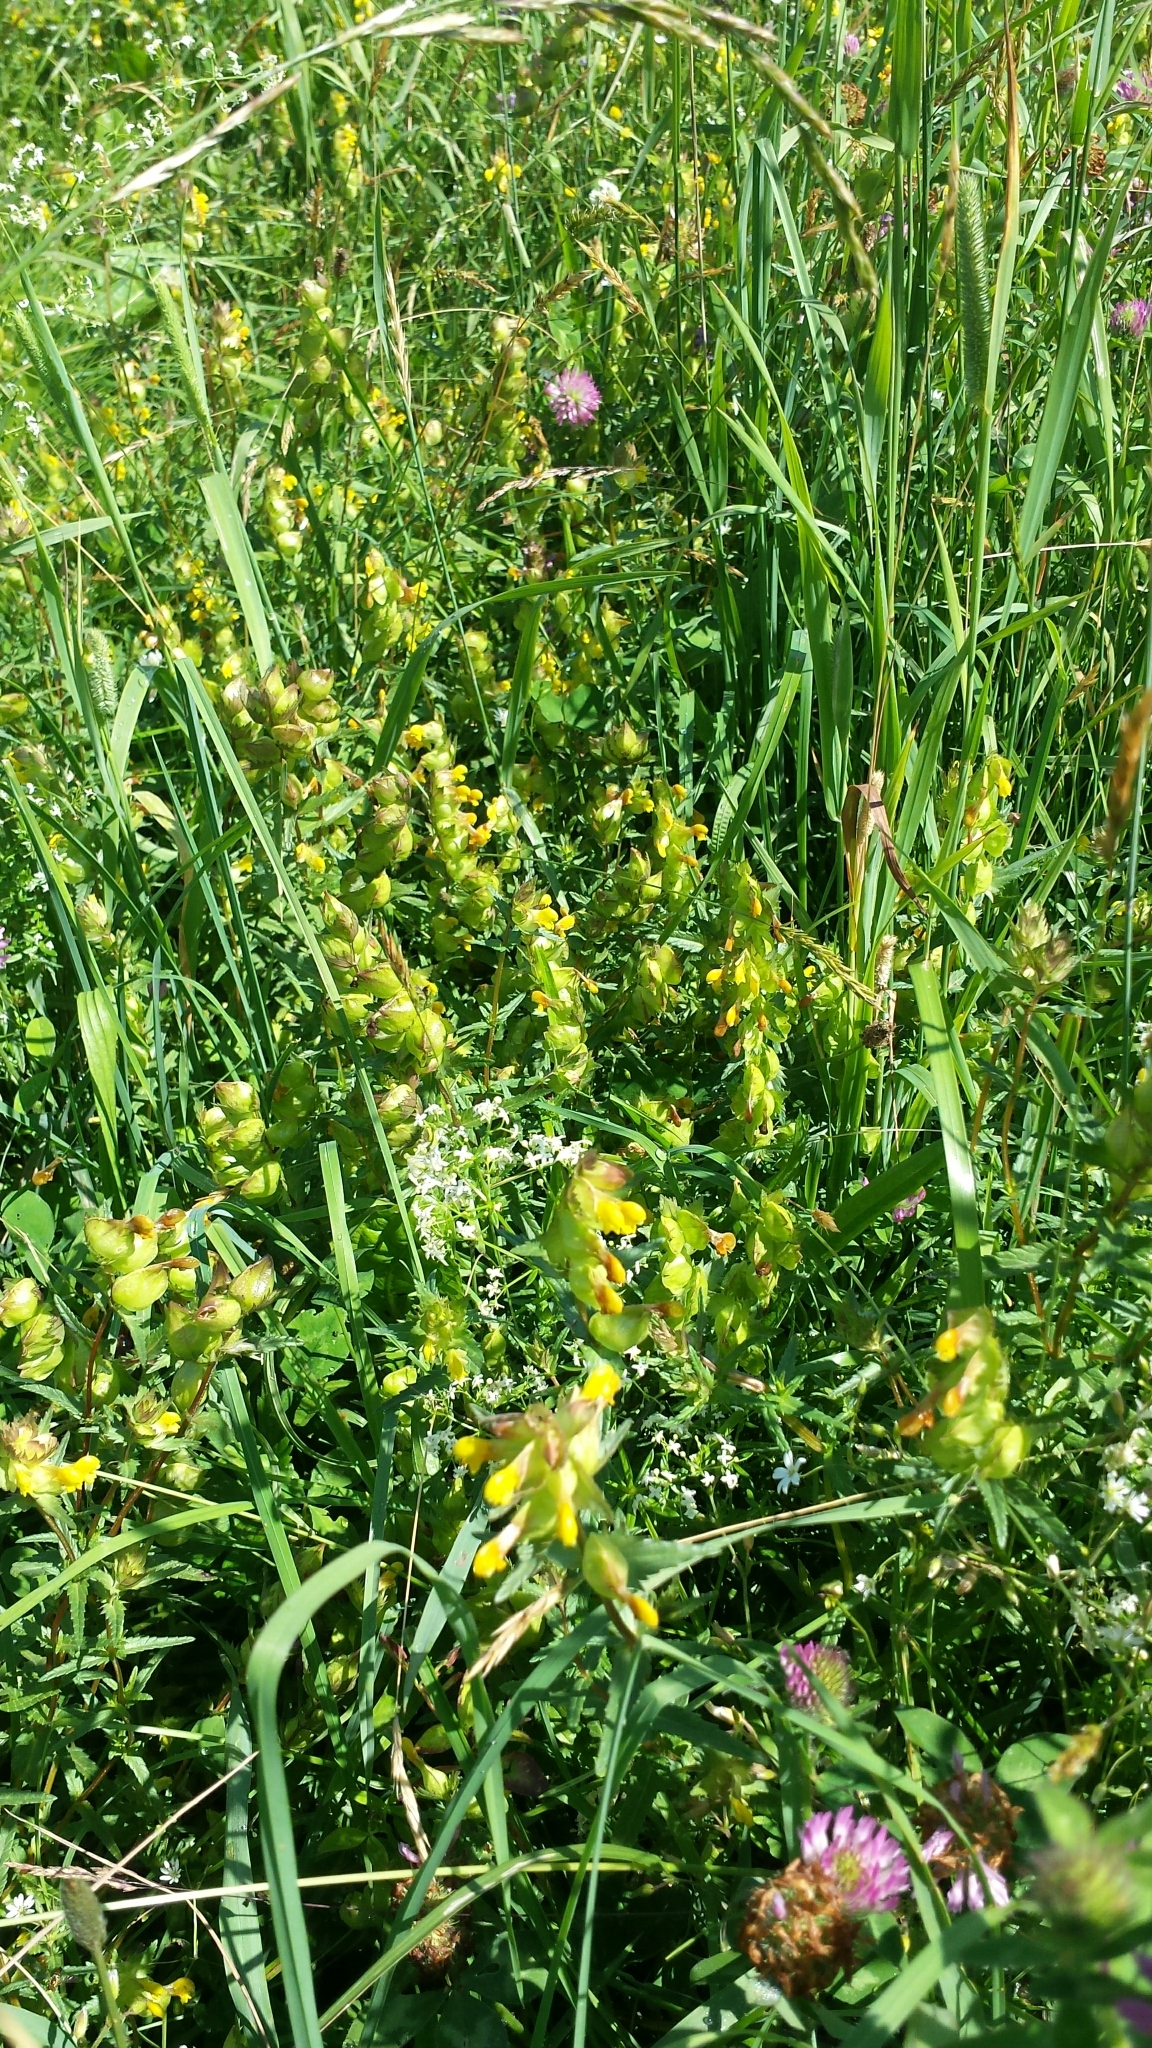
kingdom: Plantae
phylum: Tracheophyta
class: Magnoliopsida
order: Lamiales
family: Orobanchaceae
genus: Rhinanthus
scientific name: Rhinanthus minor
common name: Yellow-rattle
